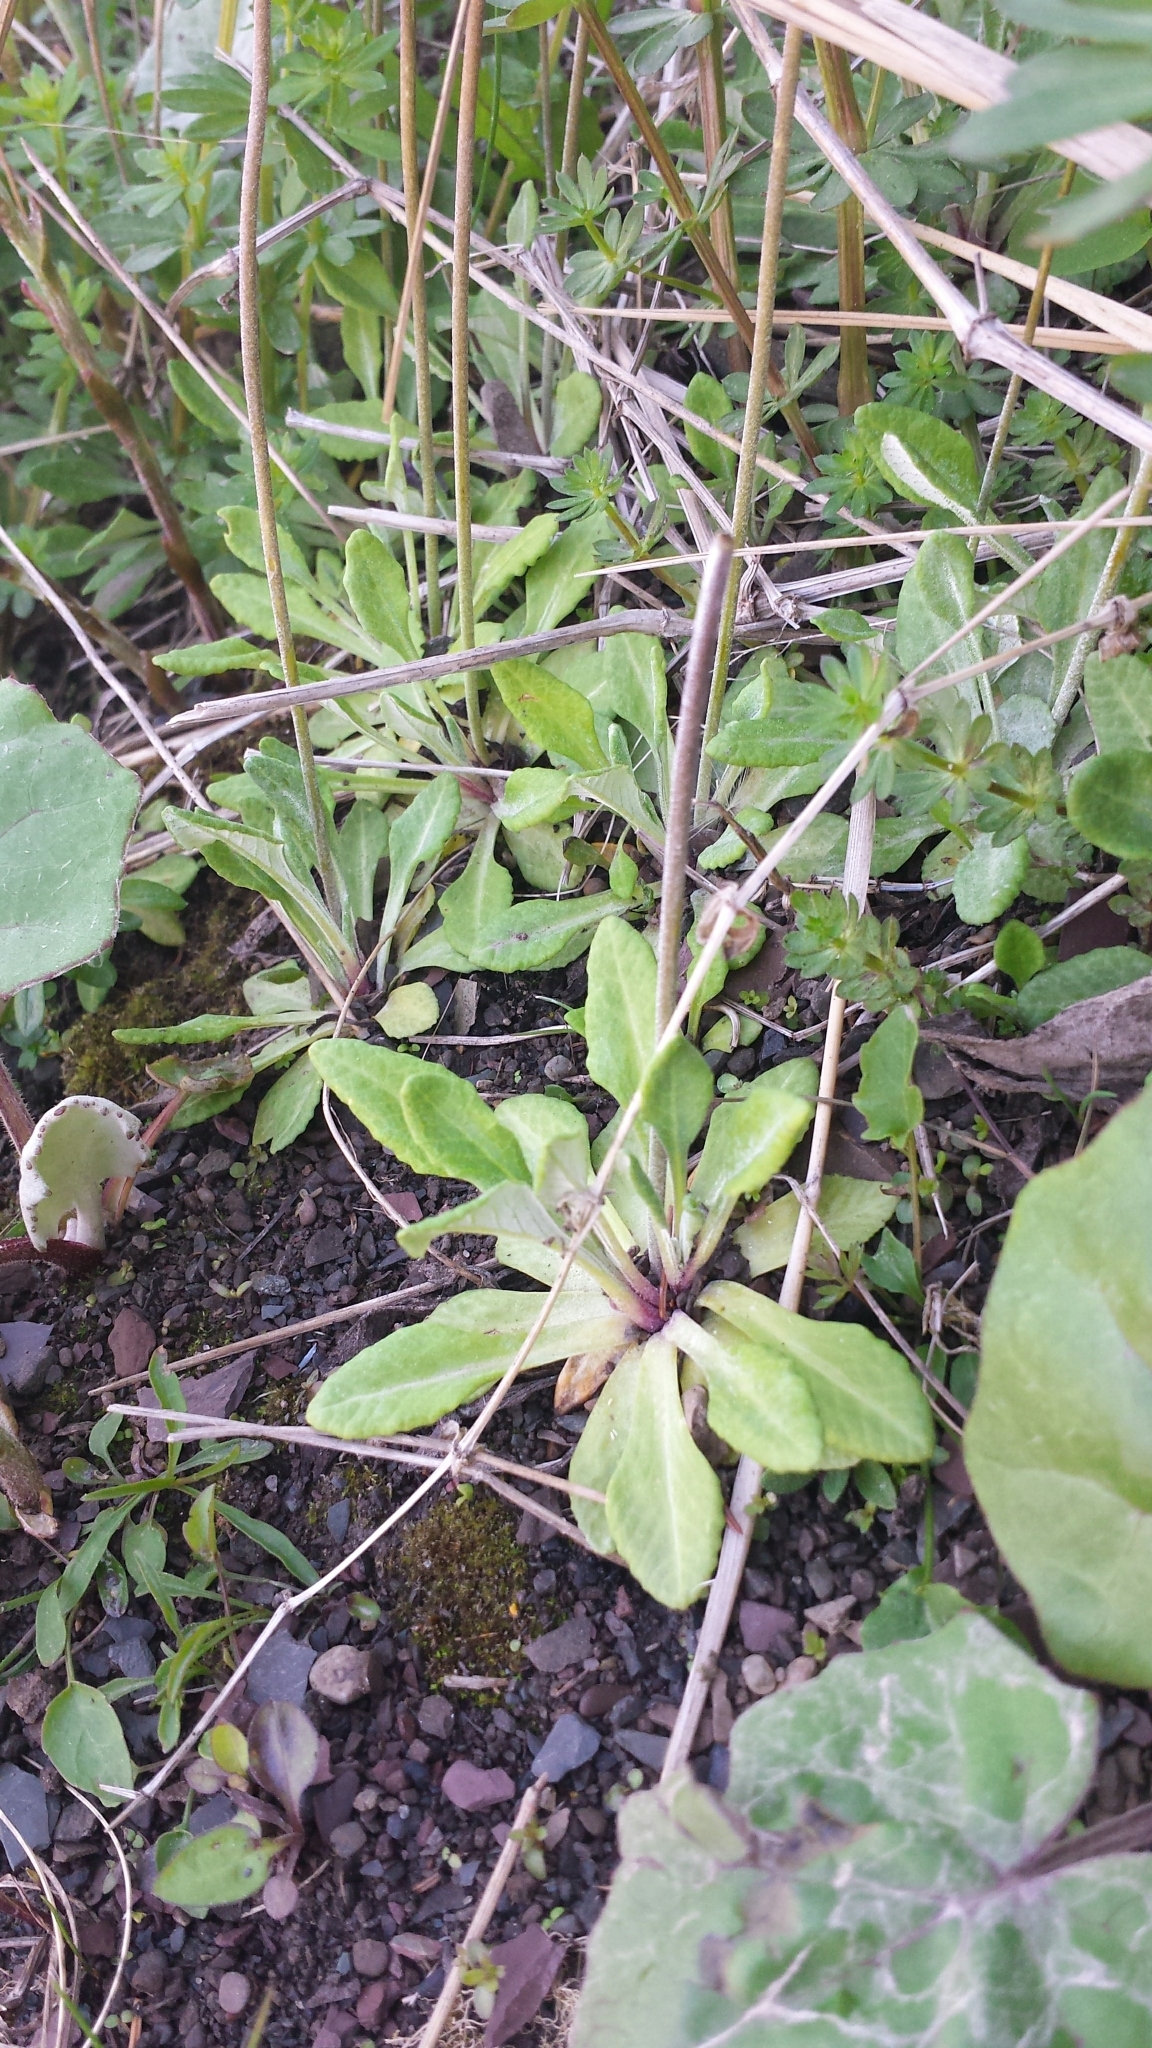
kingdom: Plantae
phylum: Tracheophyta
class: Magnoliopsida
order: Ericales
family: Primulaceae
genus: Primula
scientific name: Primula laurentiana
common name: Bird-eye primrose
